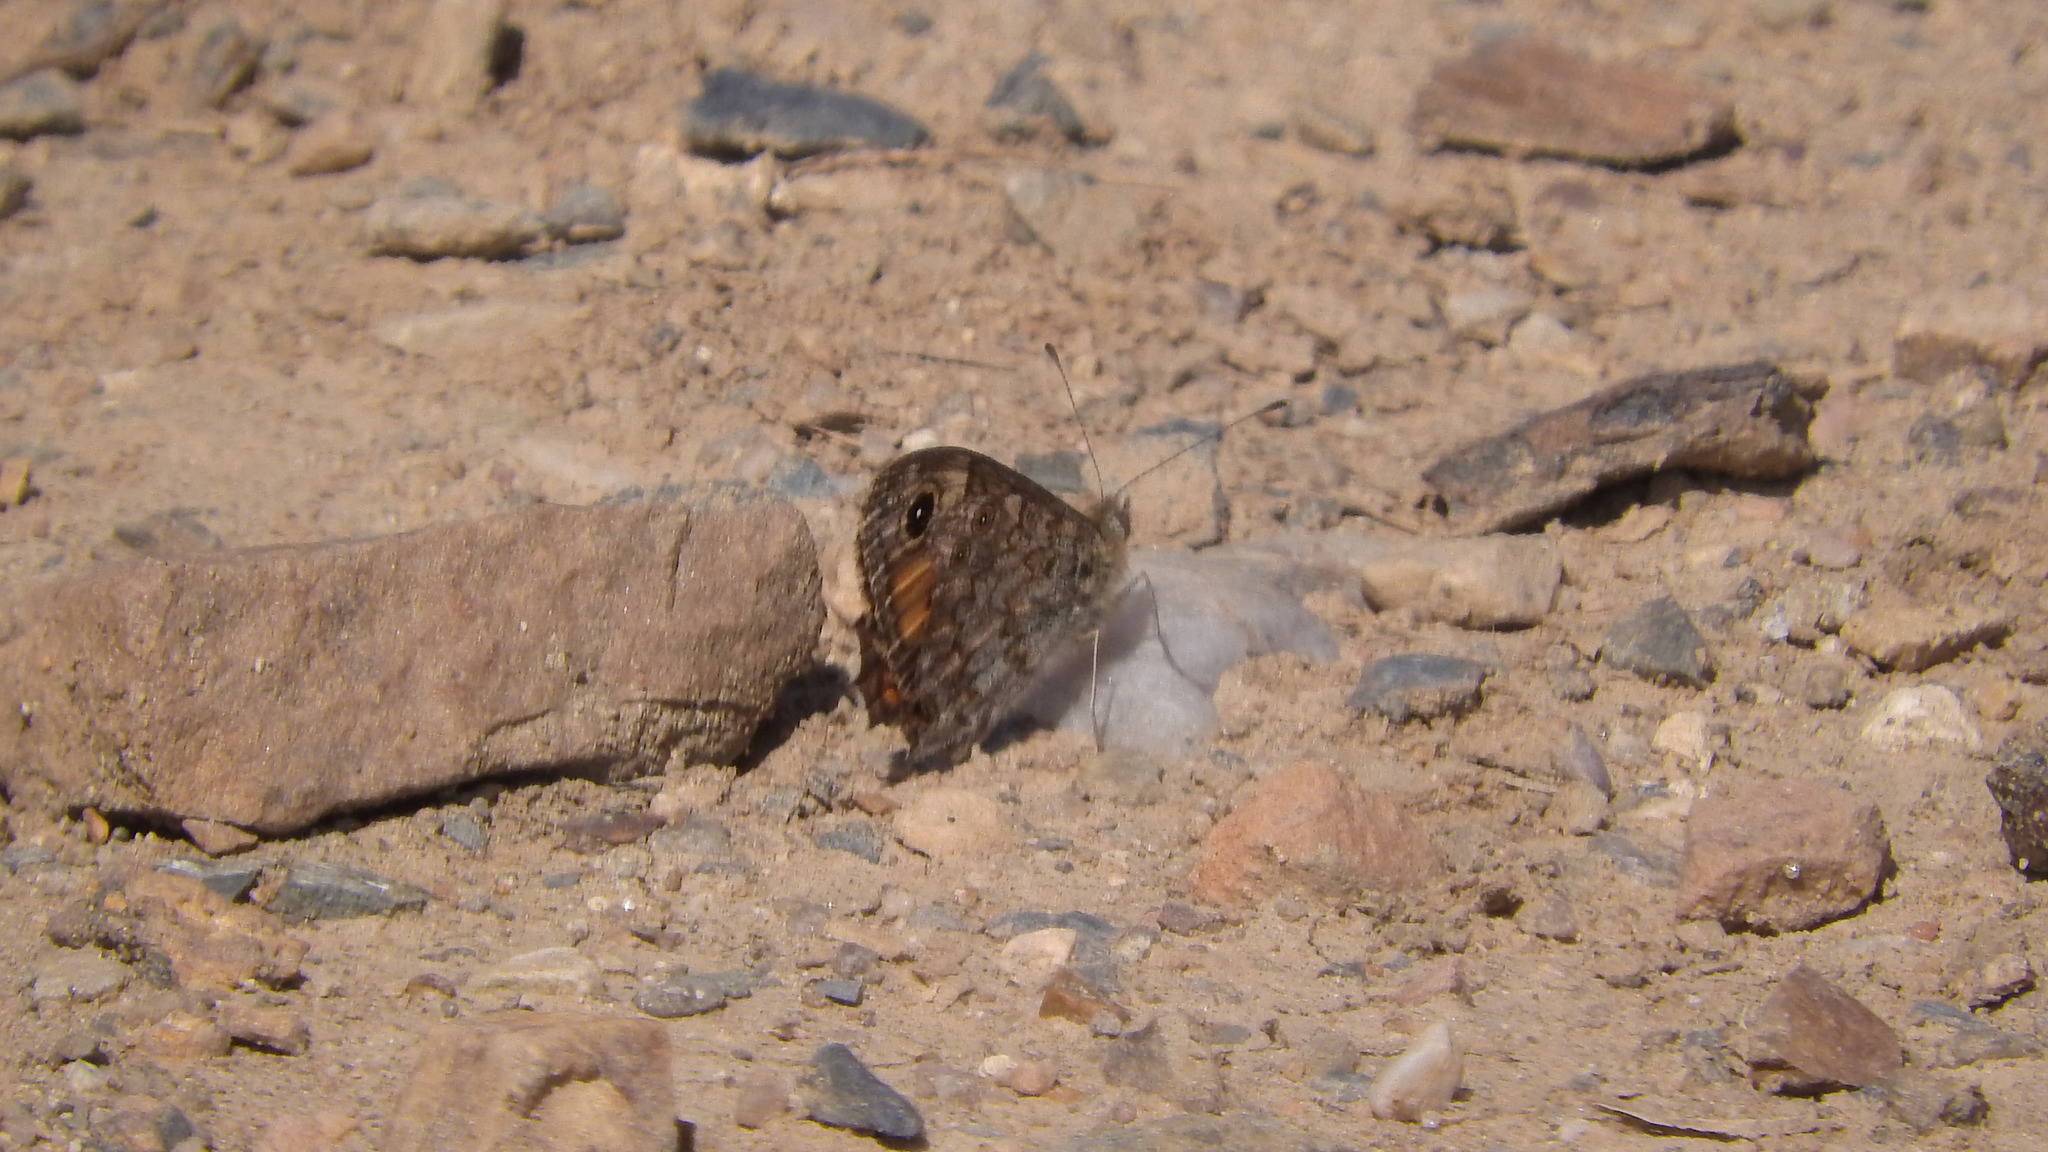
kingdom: Animalia
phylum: Arthropoda
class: Insecta
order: Lepidoptera
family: Nymphalidae
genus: Pararge
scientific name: Pararge Lasiommata megera
